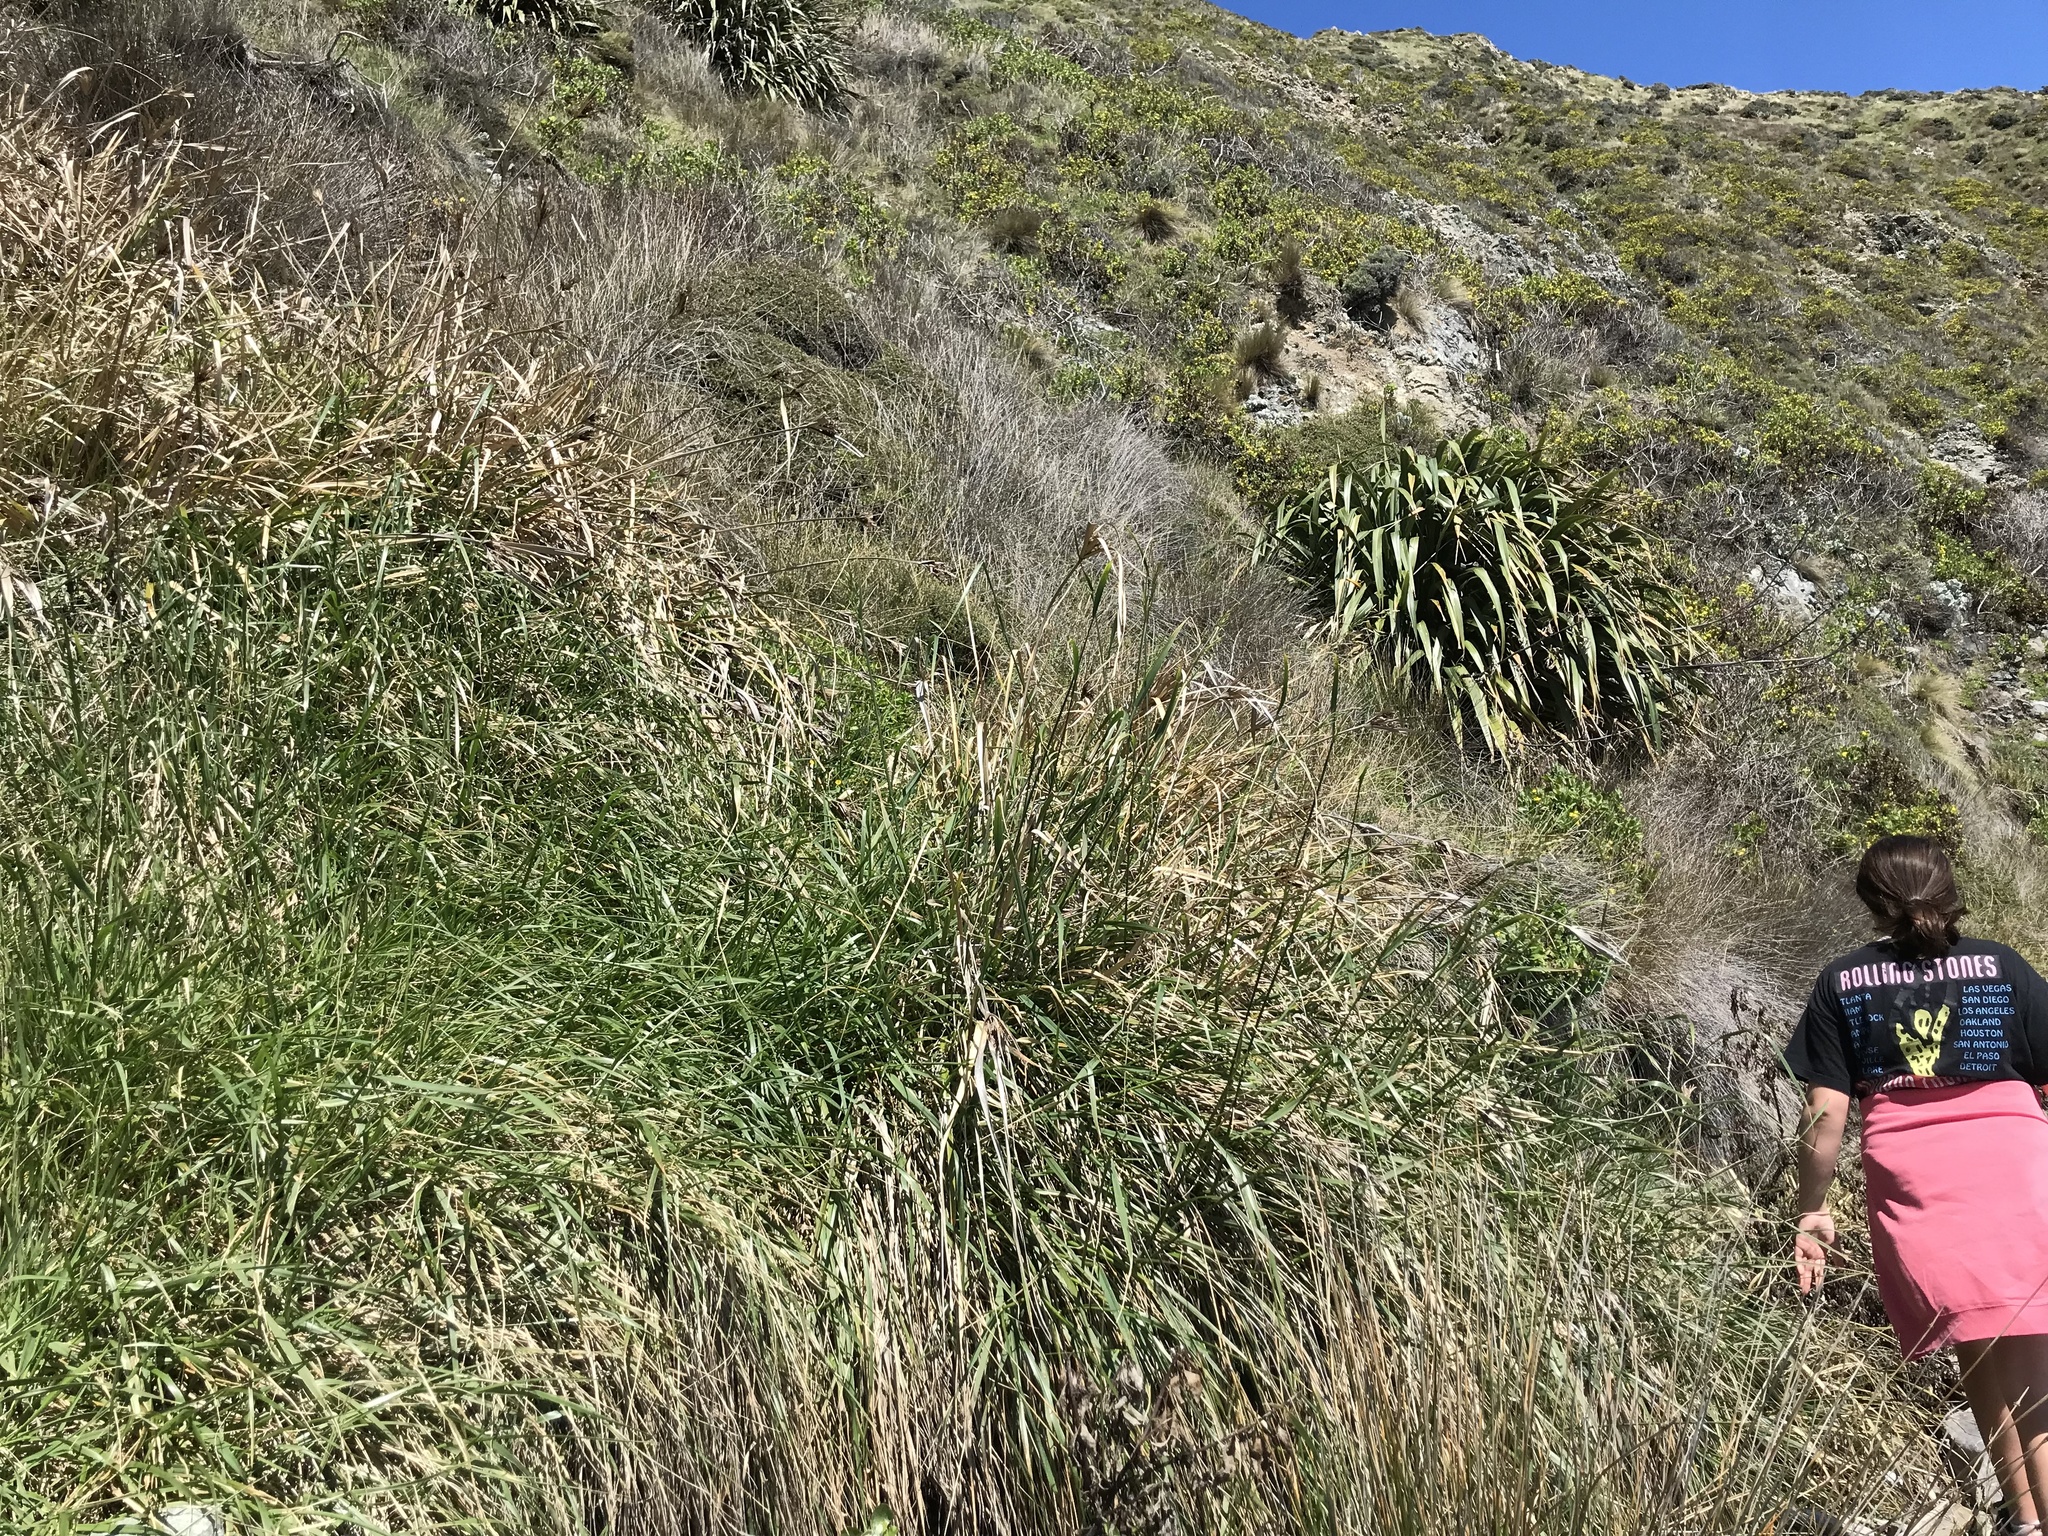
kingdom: Plantae
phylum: Tracheophyta
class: Liliopsida
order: Poales
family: Cyperaceae
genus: Cyperus
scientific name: Cyperus ustulatus
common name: Giant umbrella-sedge
